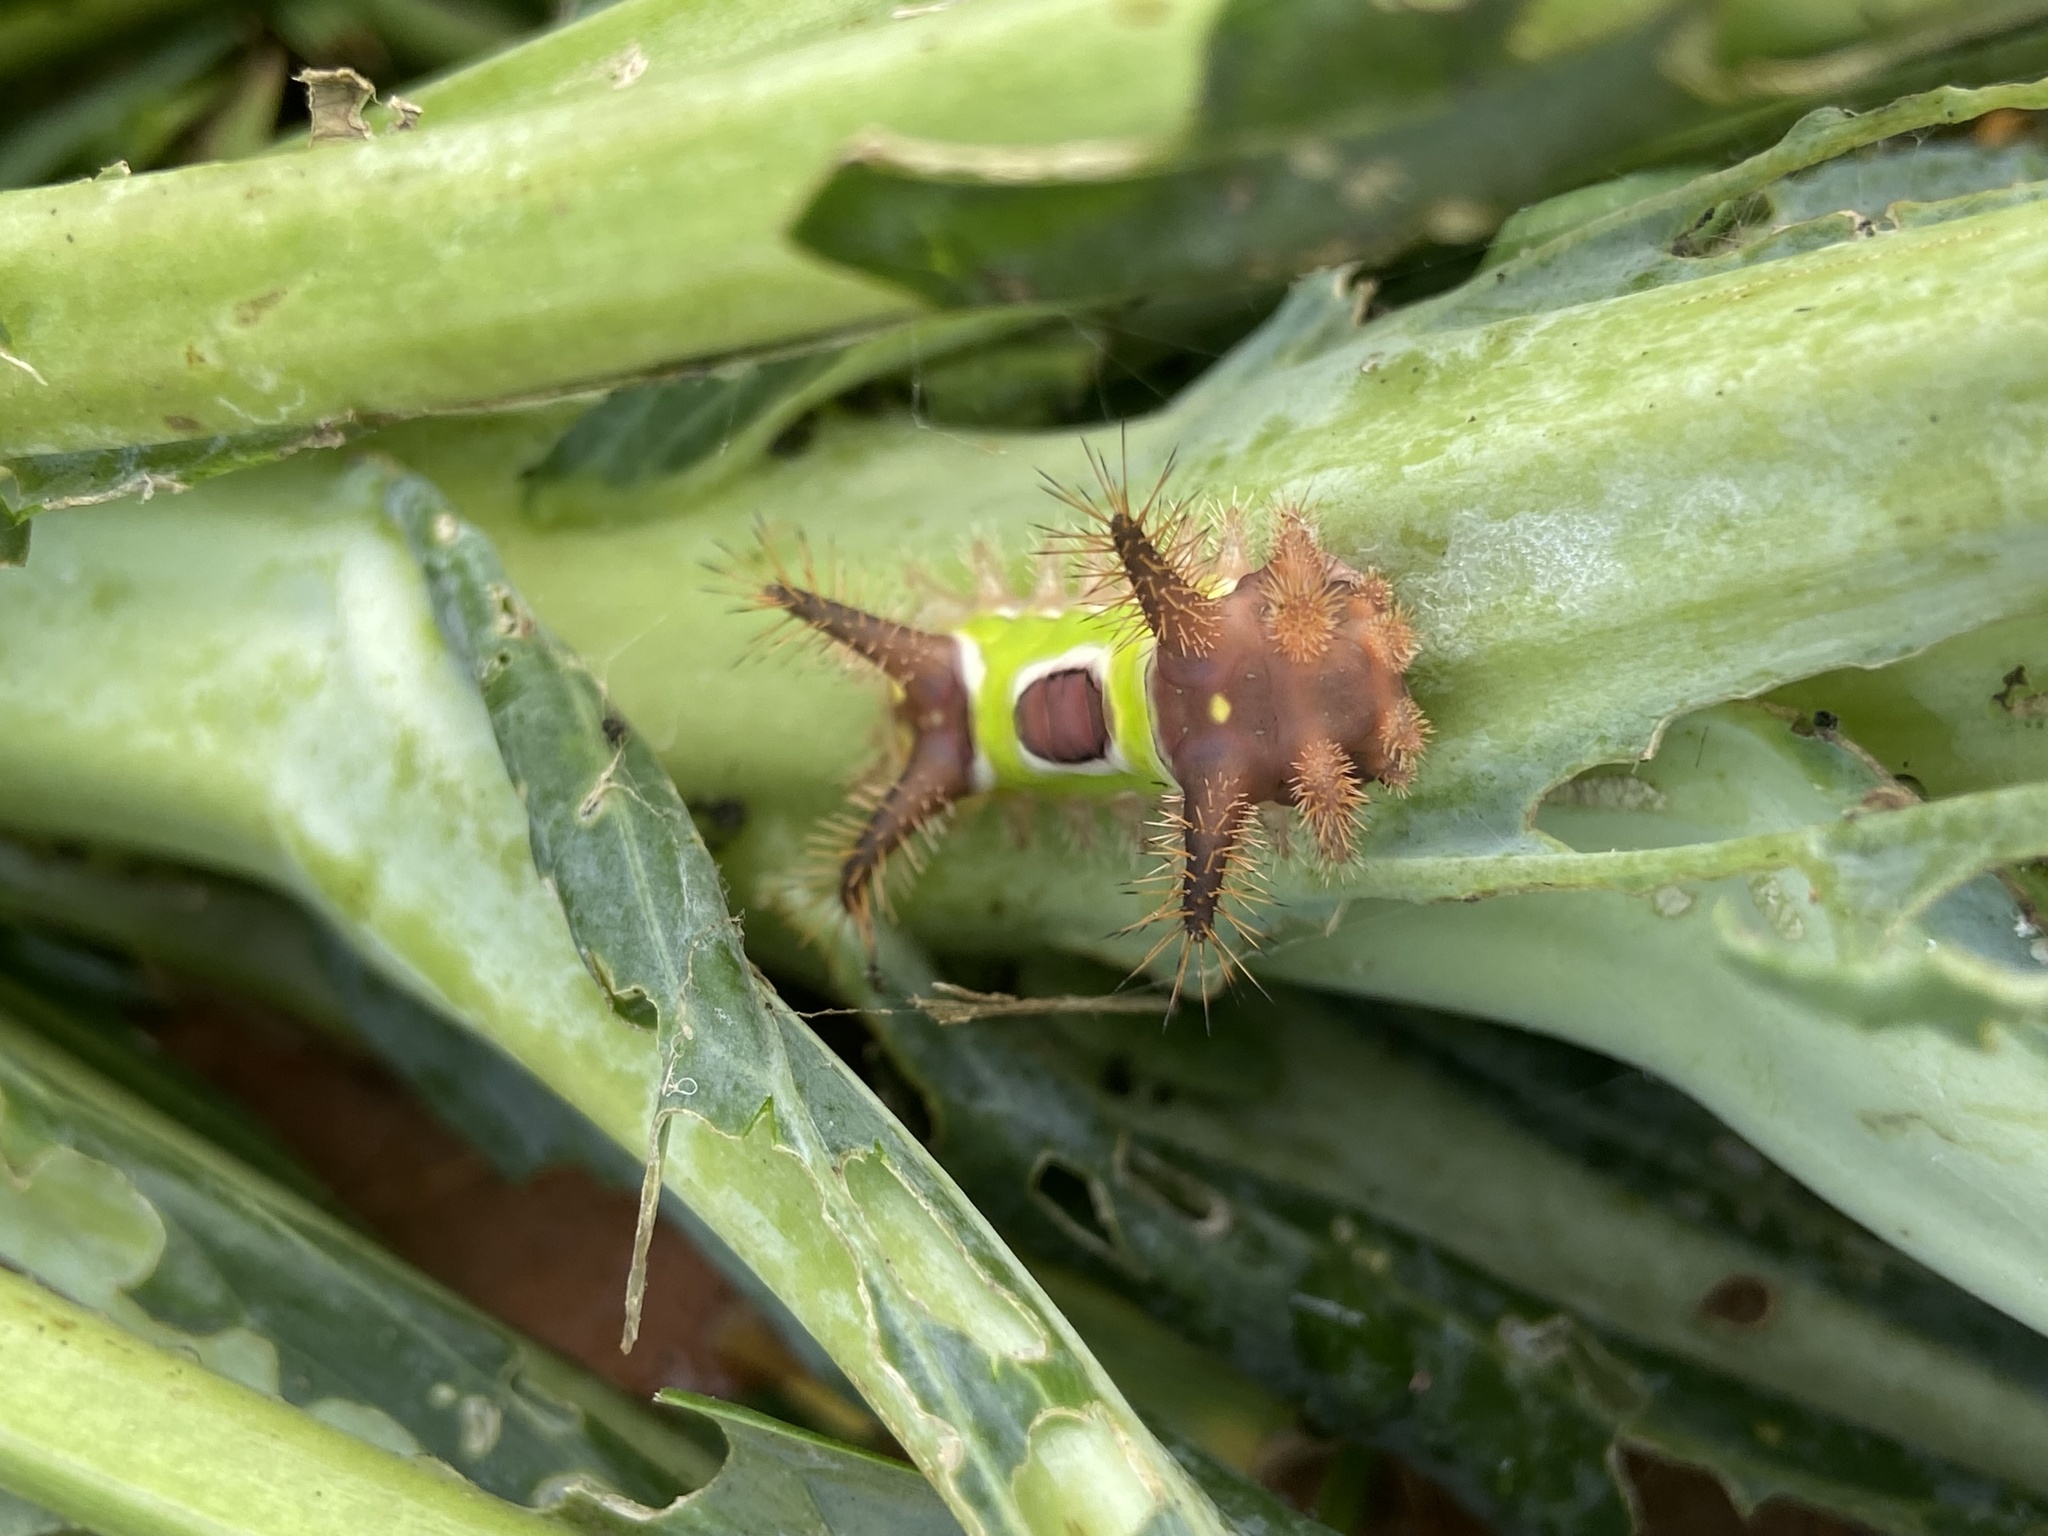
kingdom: Animalia
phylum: Arthropoda
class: Insecta
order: Lepidoptera
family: Limacodidae
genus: Acharia
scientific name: Acharia stimulea
